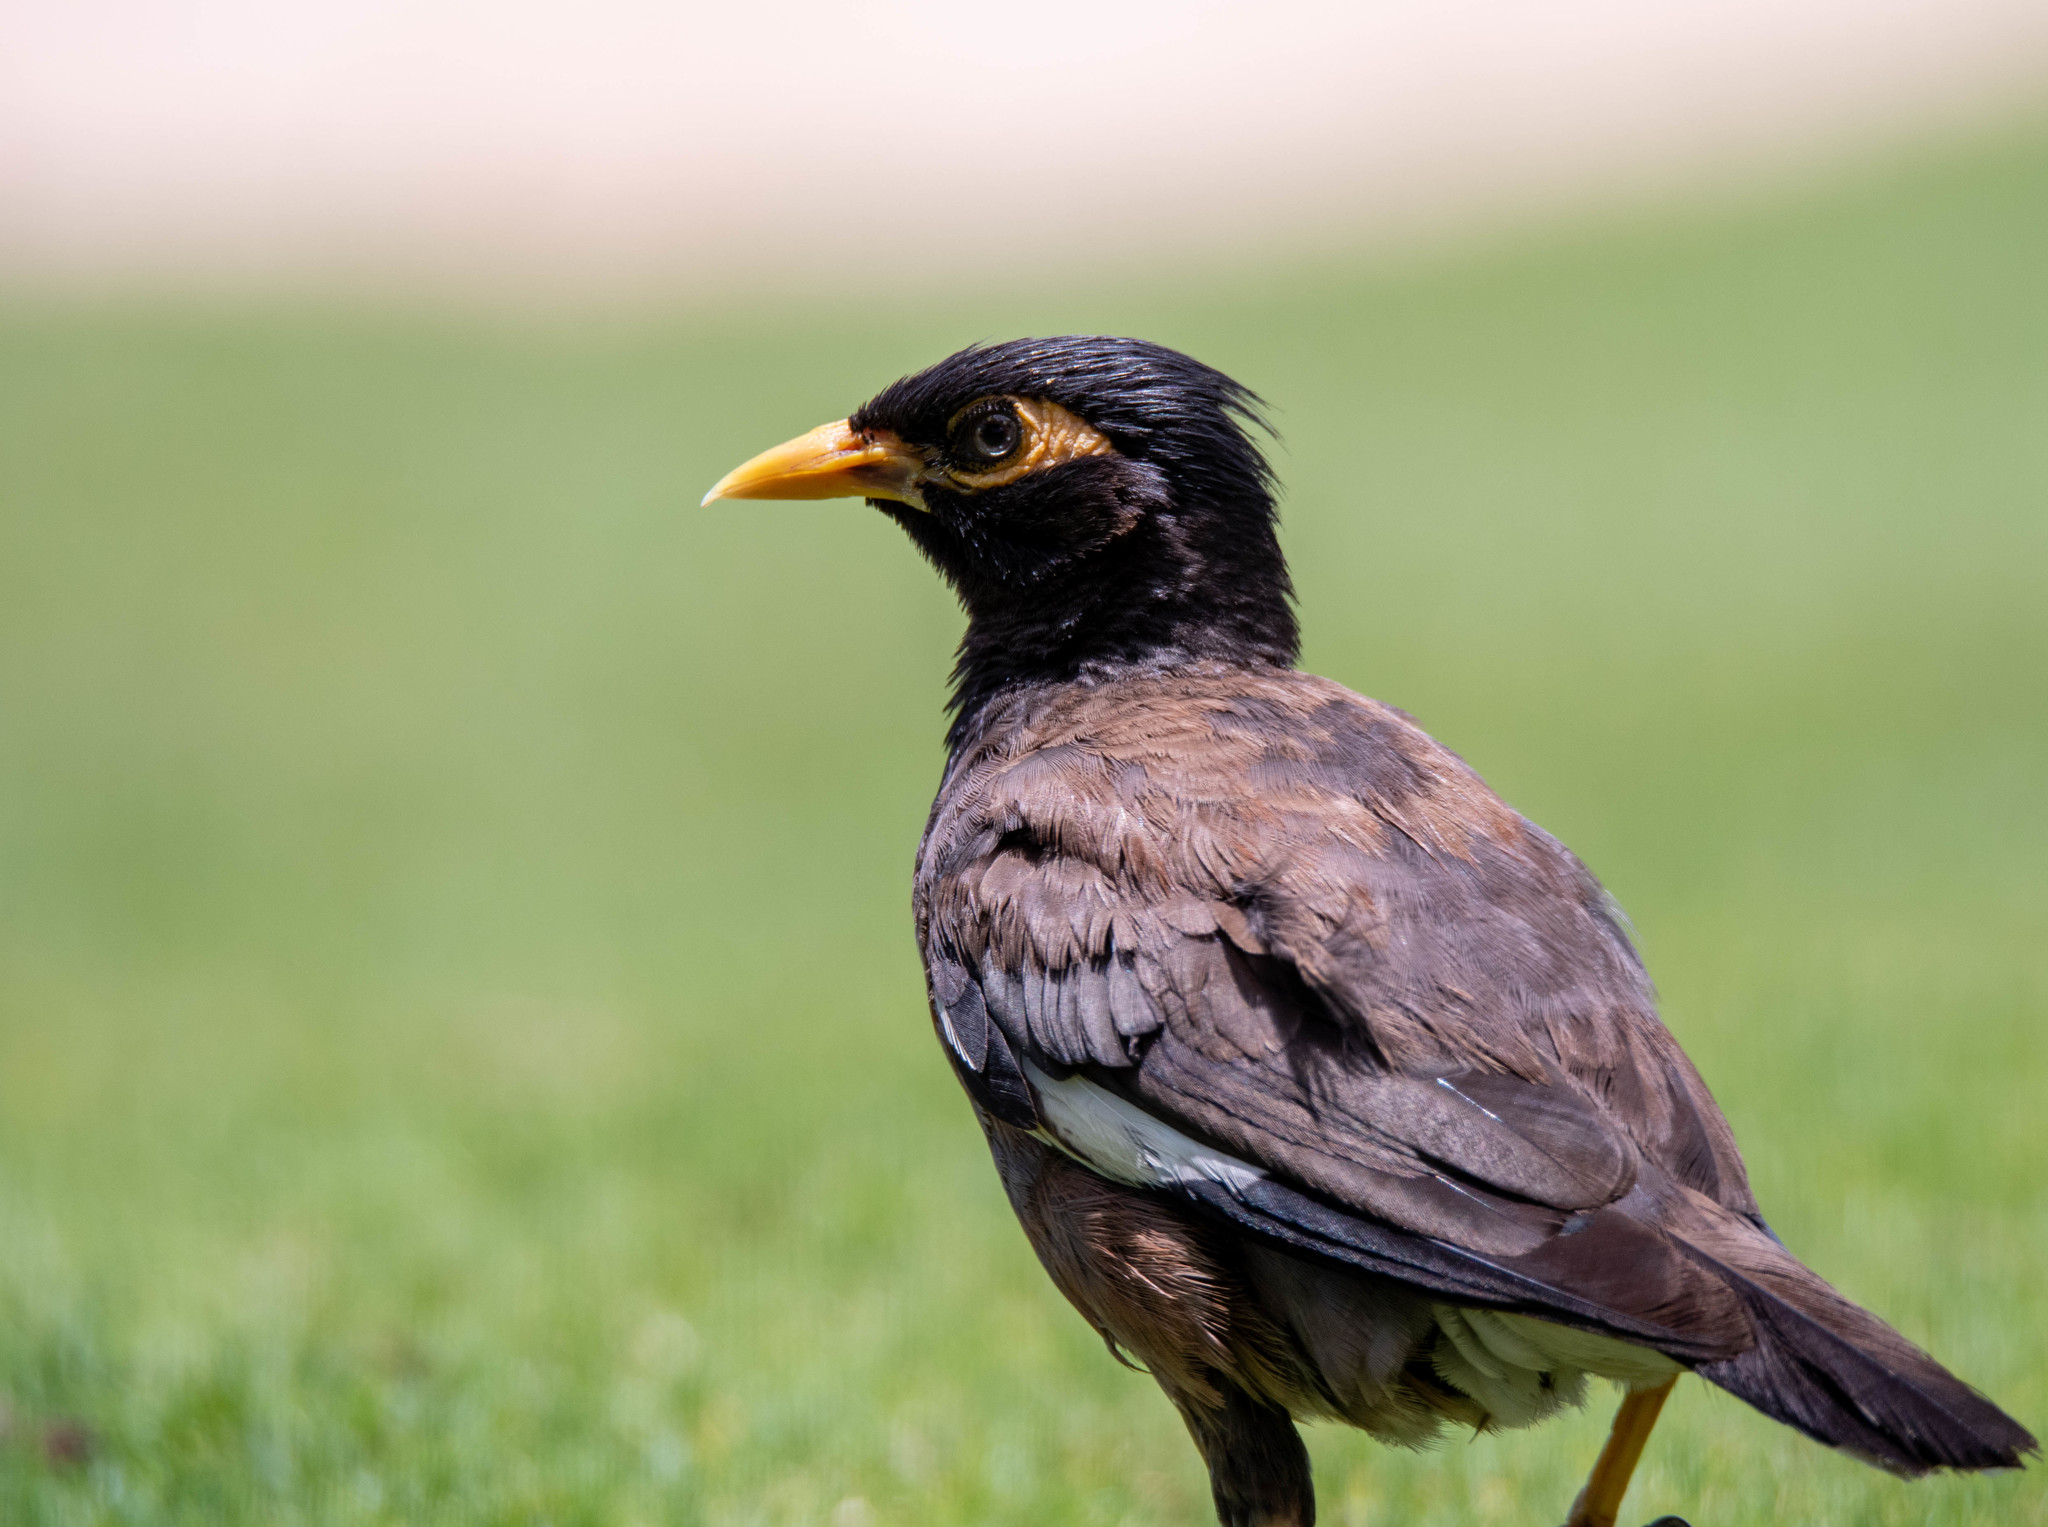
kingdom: Animalia
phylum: Chordata
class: Aves
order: Passeriformes
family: Sturnidae
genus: Acridotheres
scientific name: Acridotheres tristis
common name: Common myna
